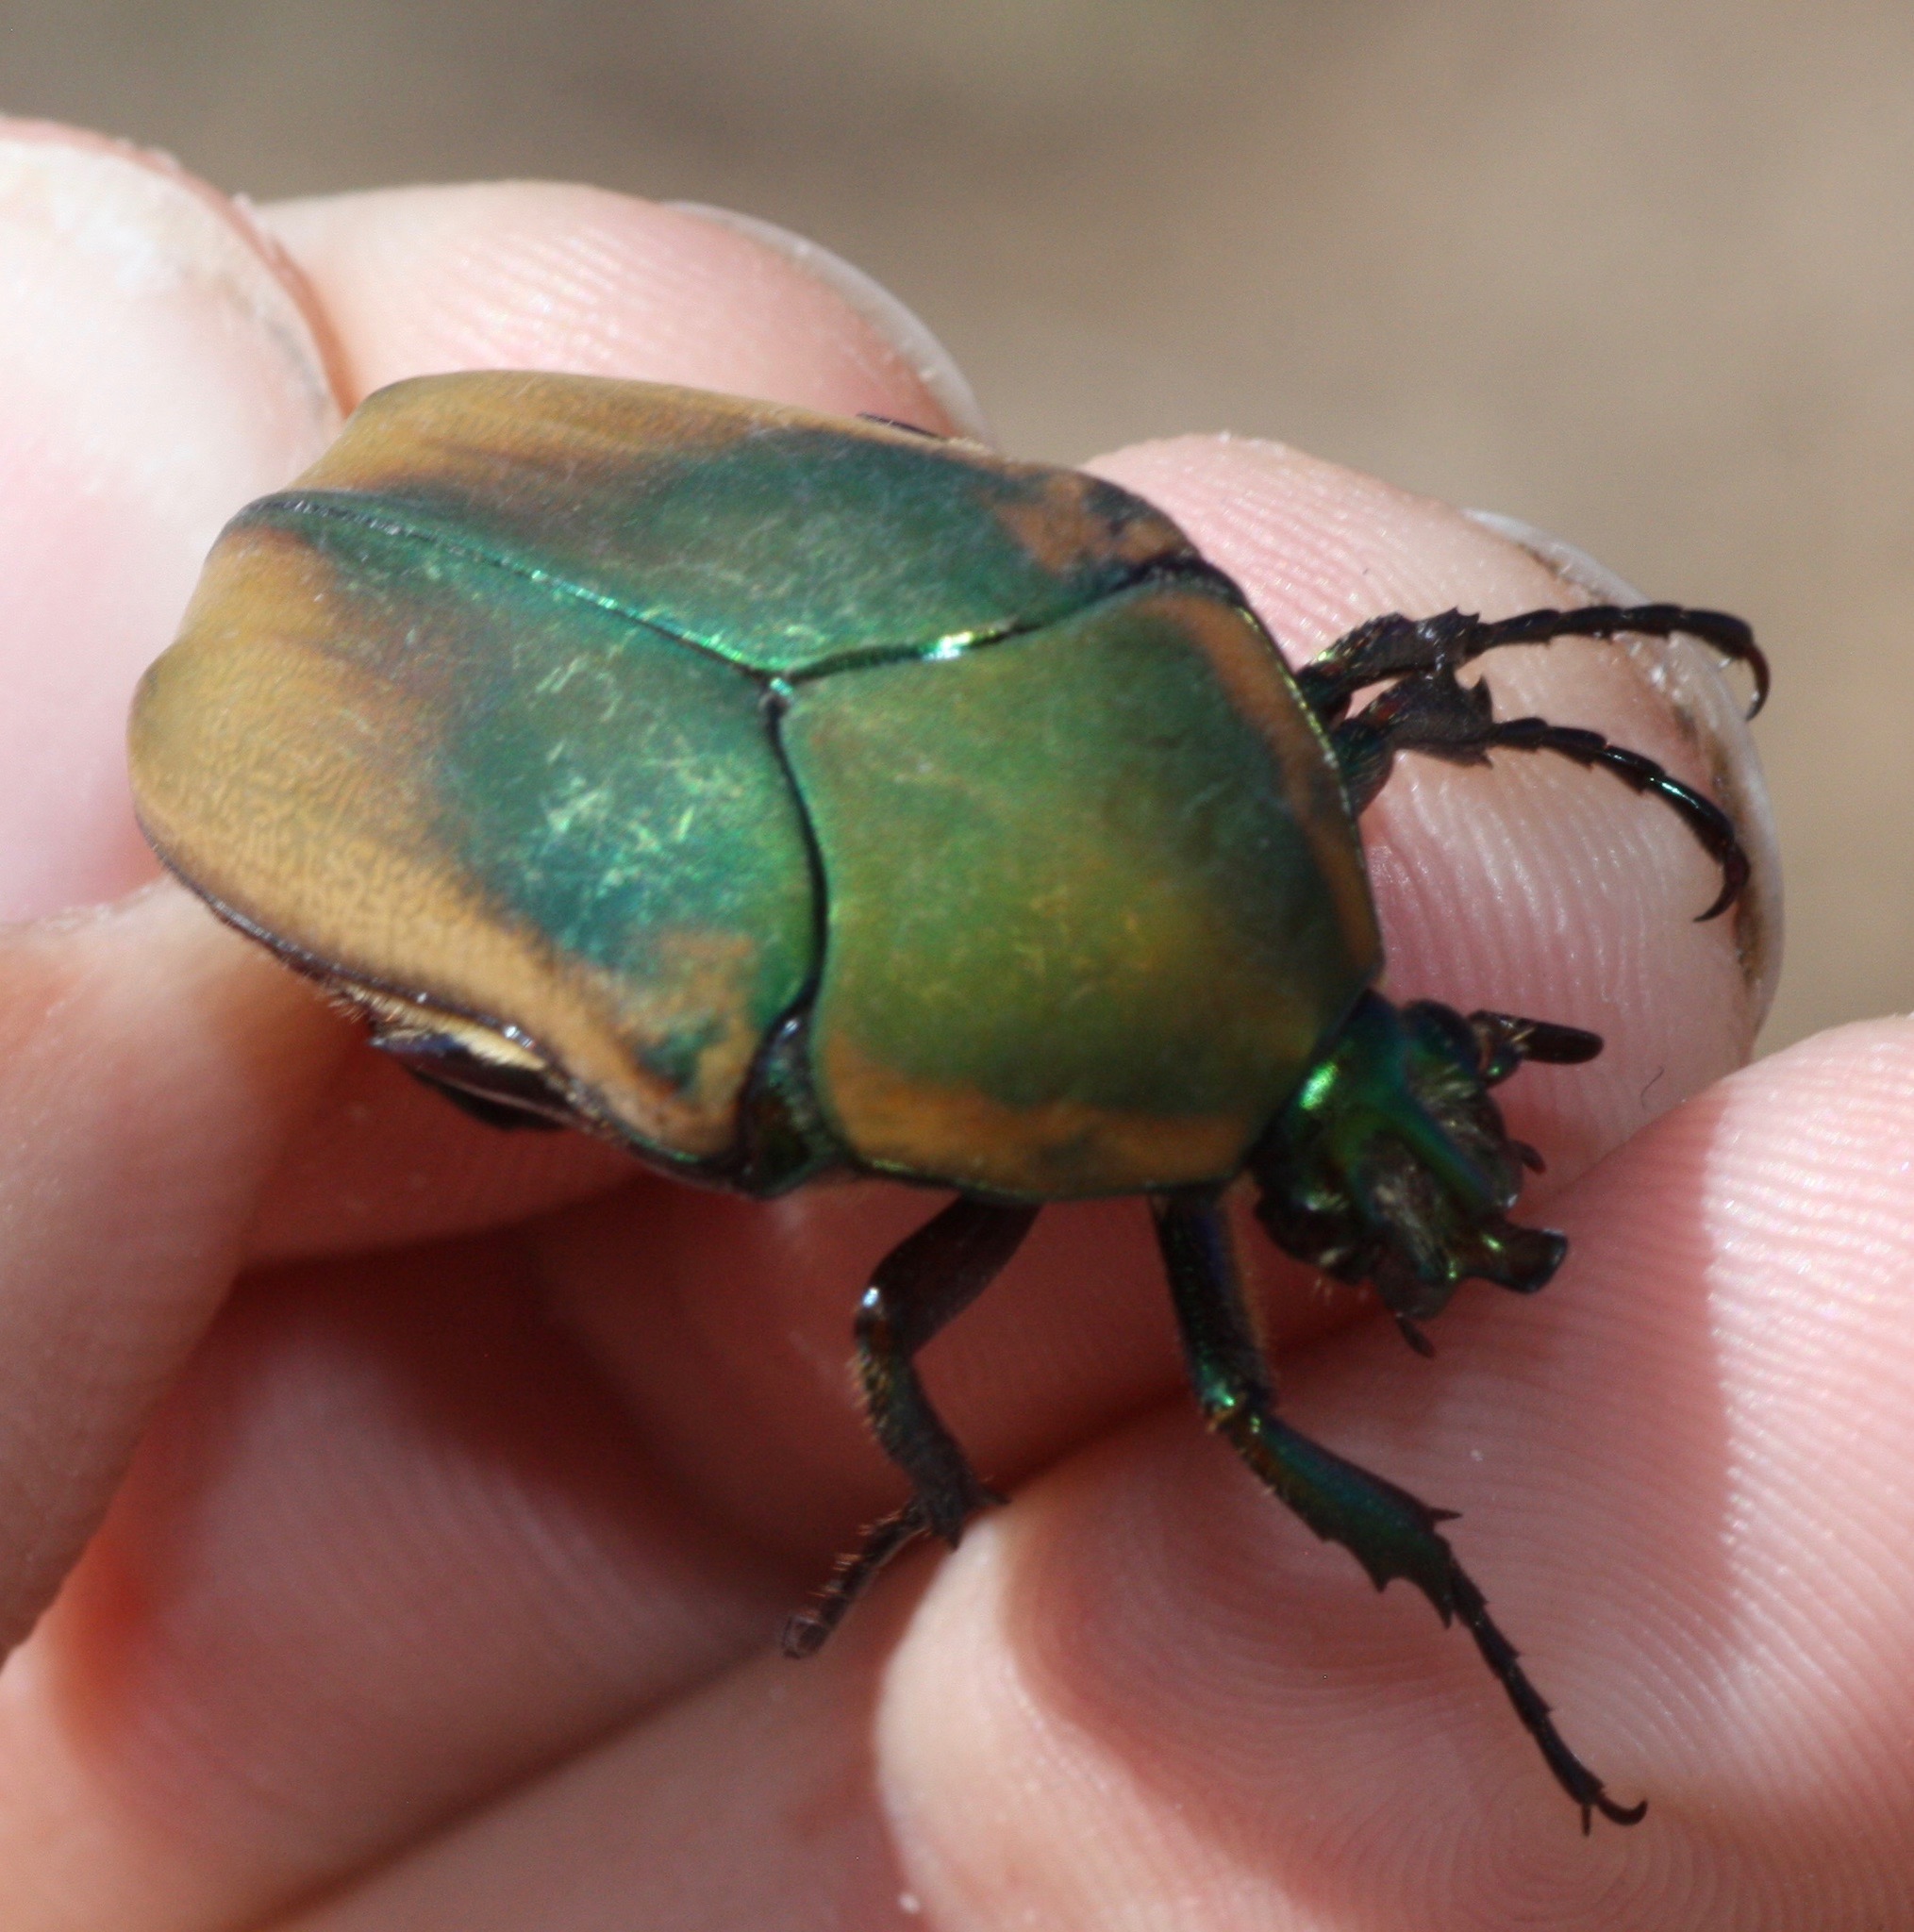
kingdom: Animalia
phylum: Arthropoda
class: Insecta
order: Coleoptera
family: Scarabaeidae
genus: Cotinis
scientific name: Cotinis mutabilis
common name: Figeater beetle
